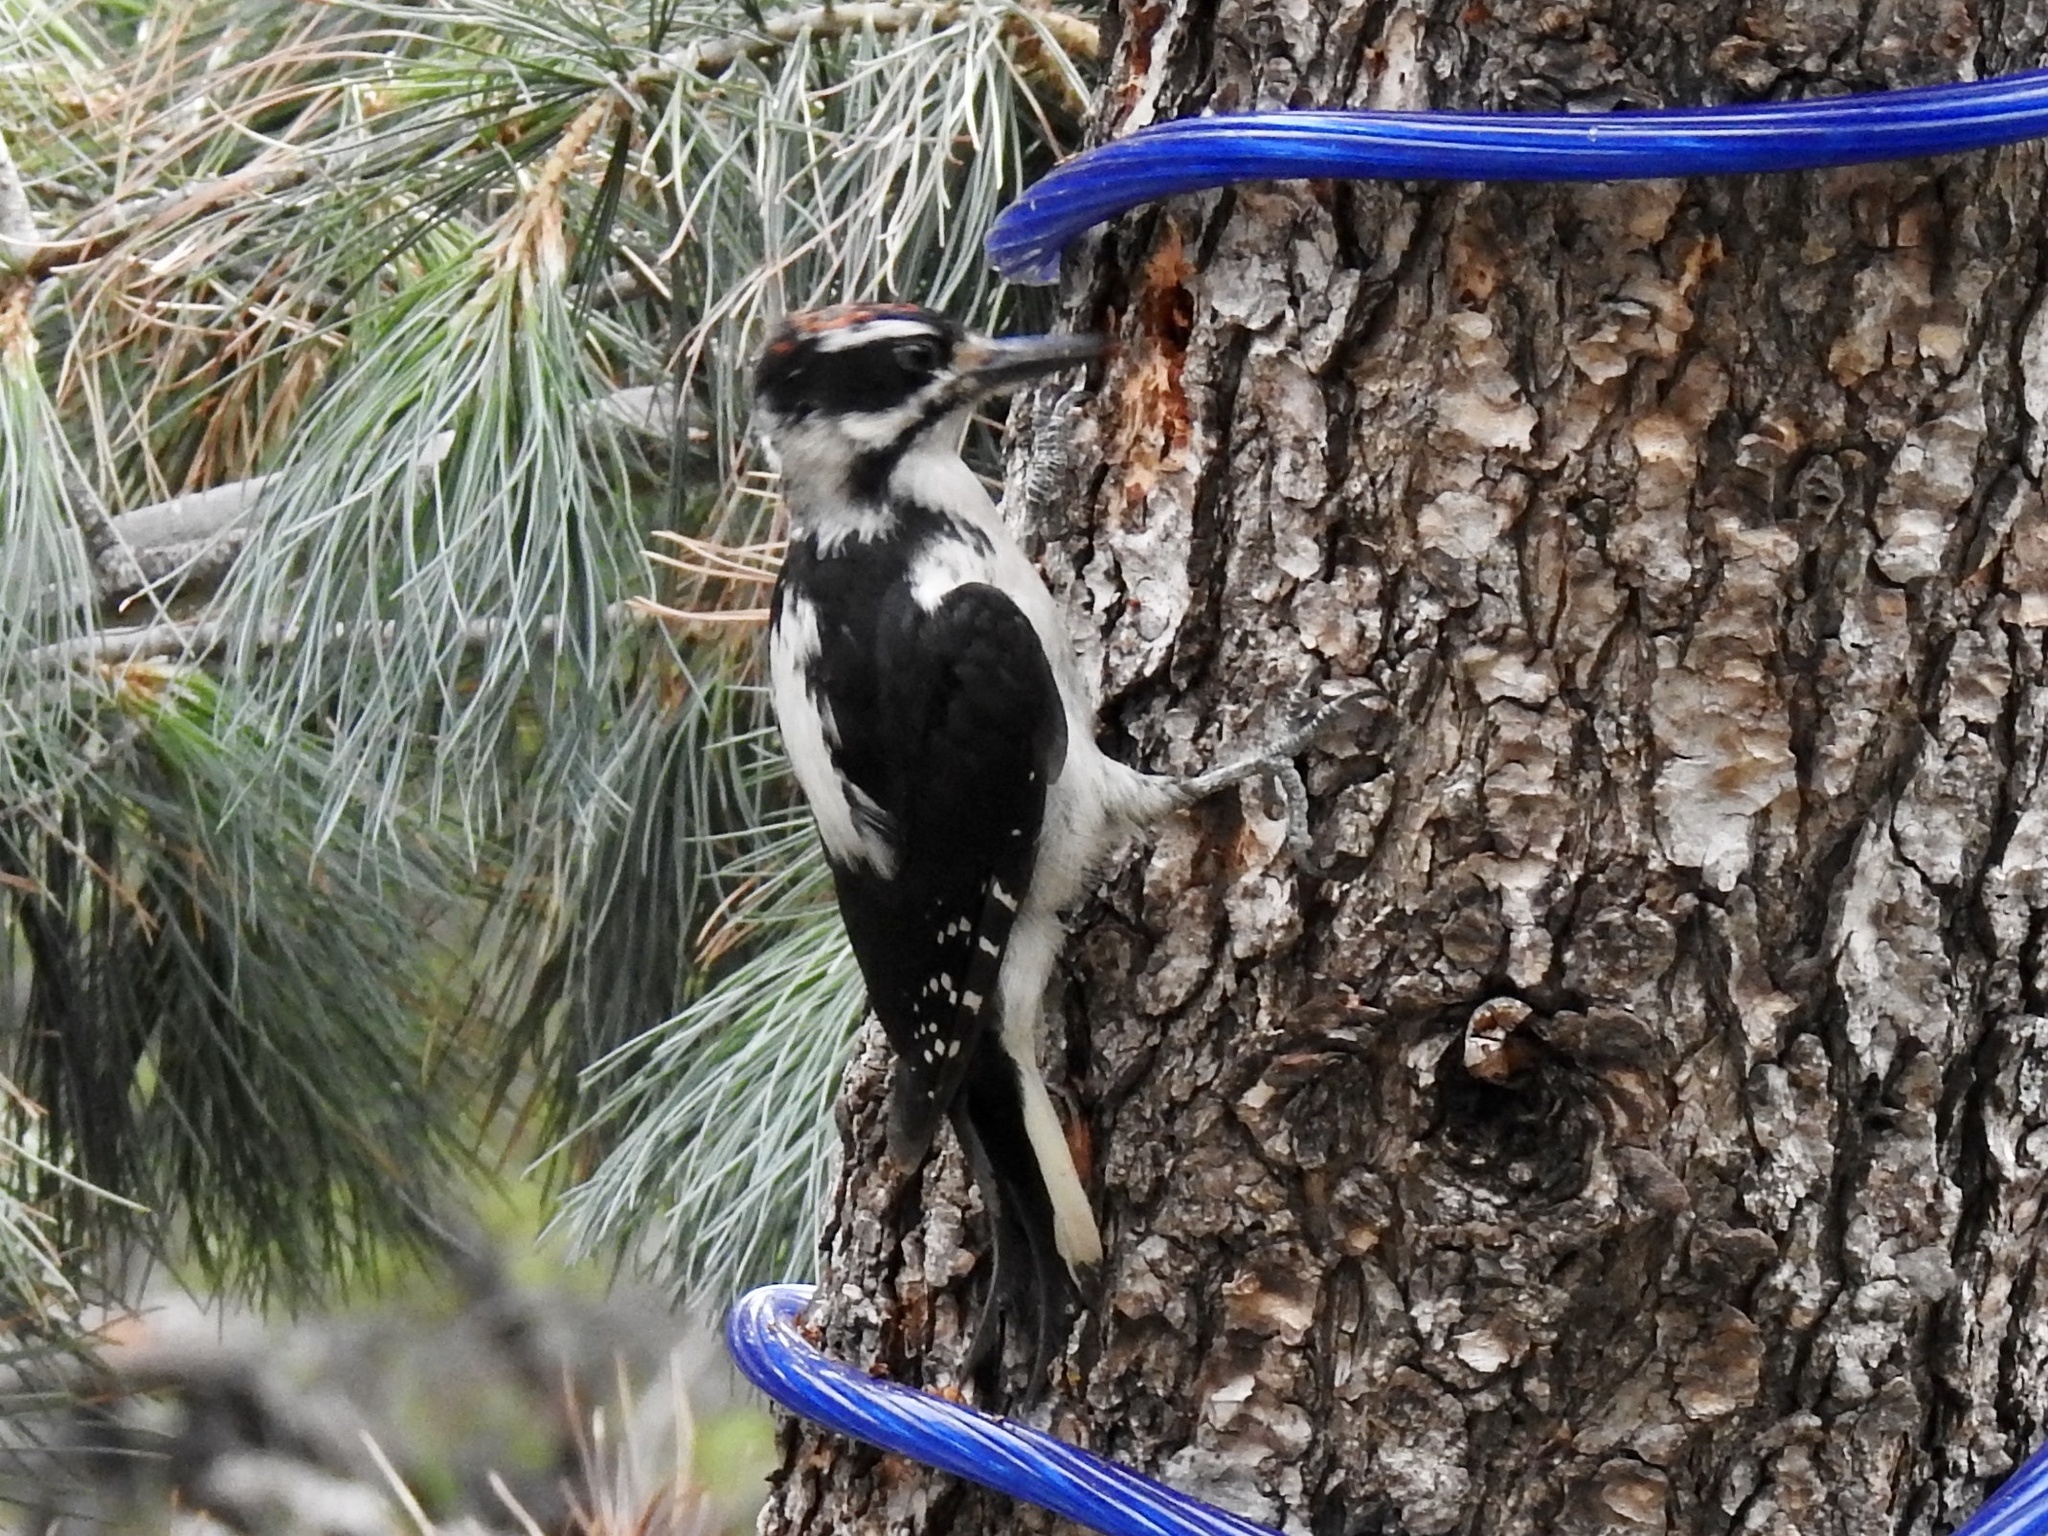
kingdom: Animalia
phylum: Chordata
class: Aves
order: Piciformes
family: Picidae
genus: Leuconotopicus
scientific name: Leuconotopicus villosus
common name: Hairy woodpecker
